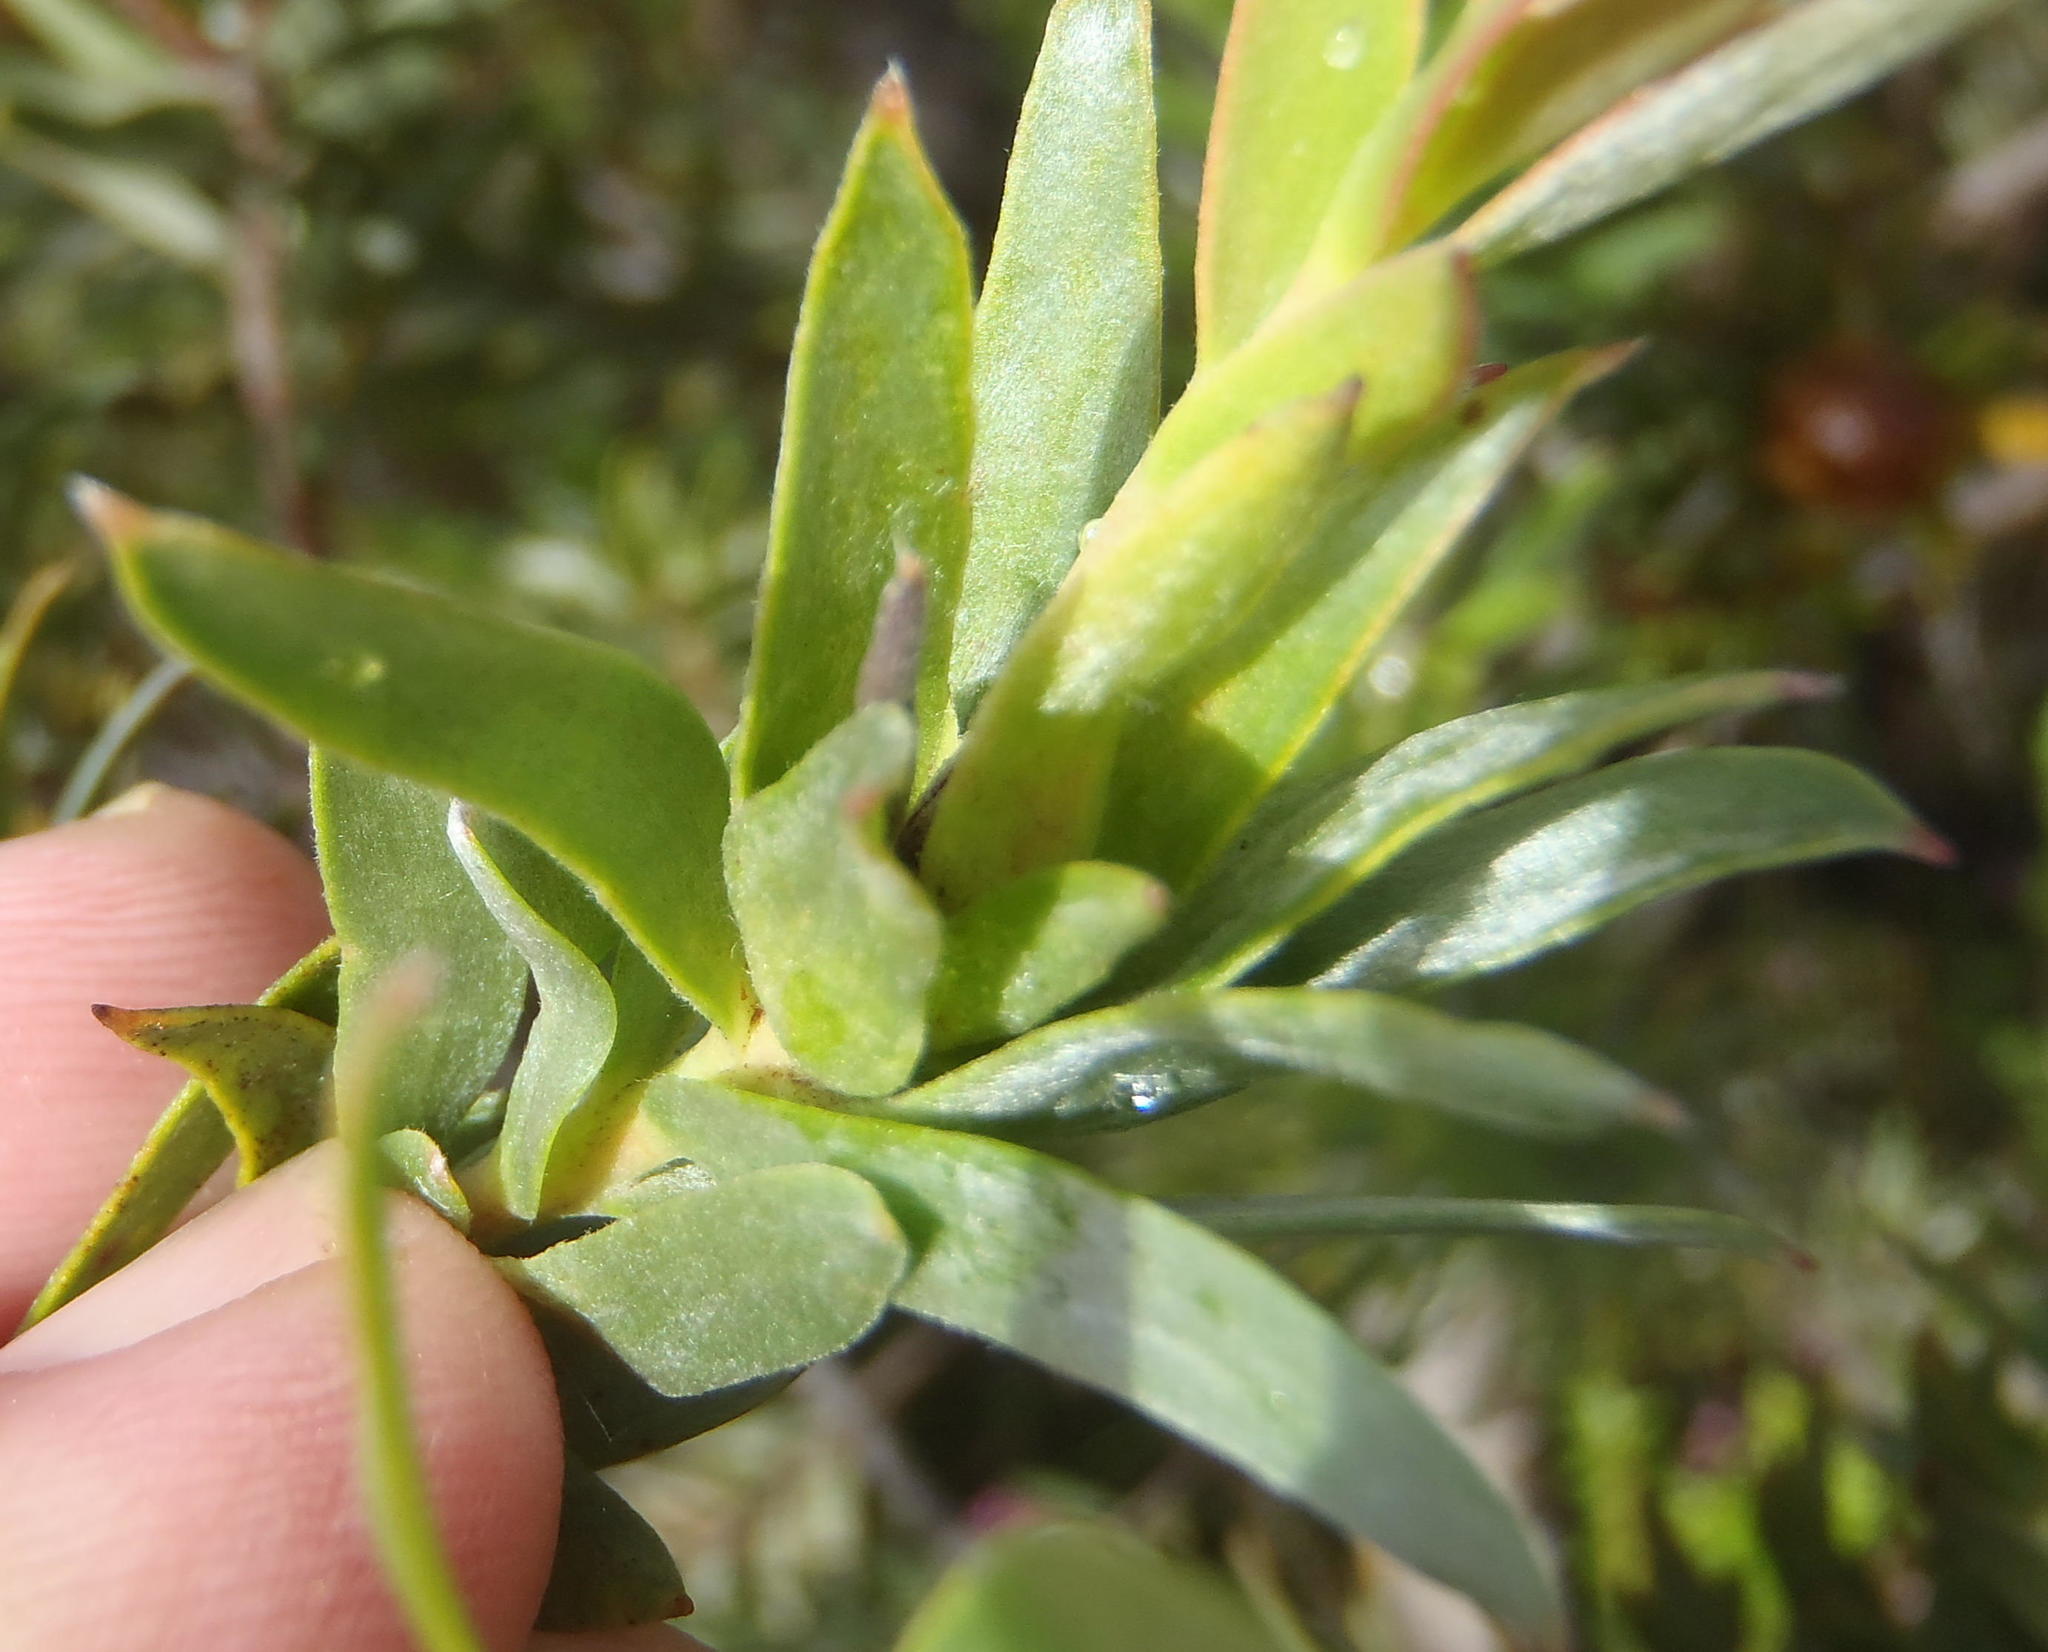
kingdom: Plantae
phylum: Tracheophyta
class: Magnoliopsida
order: Proteales
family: Proteaceae
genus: Leucadendron
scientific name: Leucadendron uliginosum
